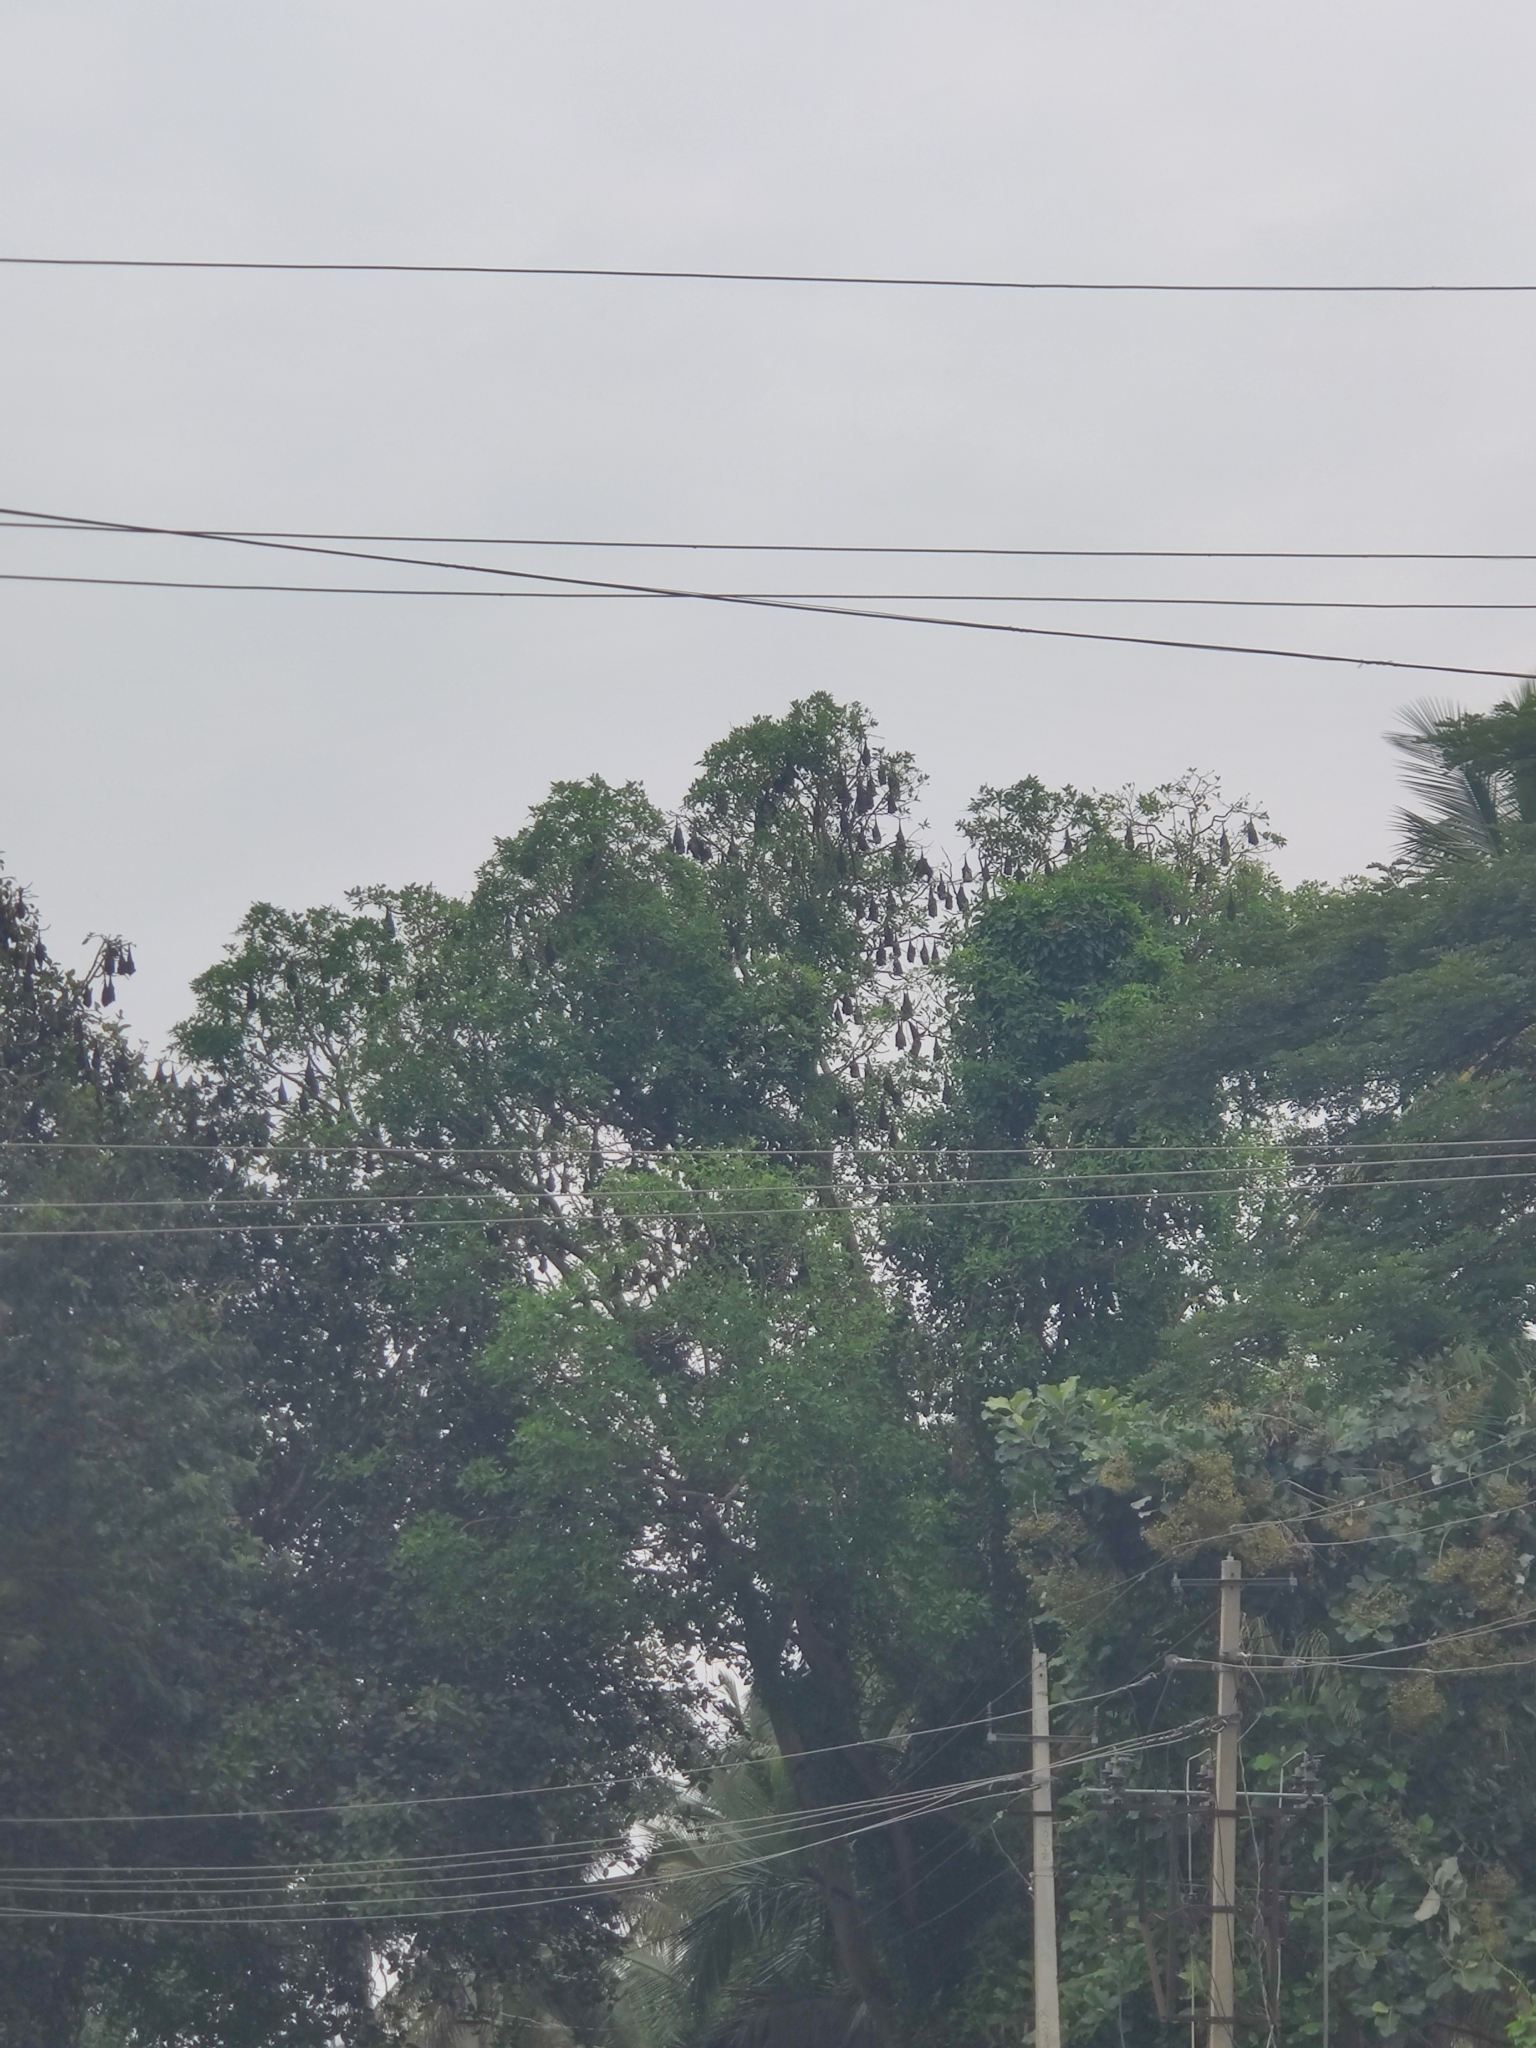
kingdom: Animalia
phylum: Chordata
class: Mammalia
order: Chiroptera
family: Pteropodidae
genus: Pteropus
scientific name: Pteropus vampyrus
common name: Large flying fox
